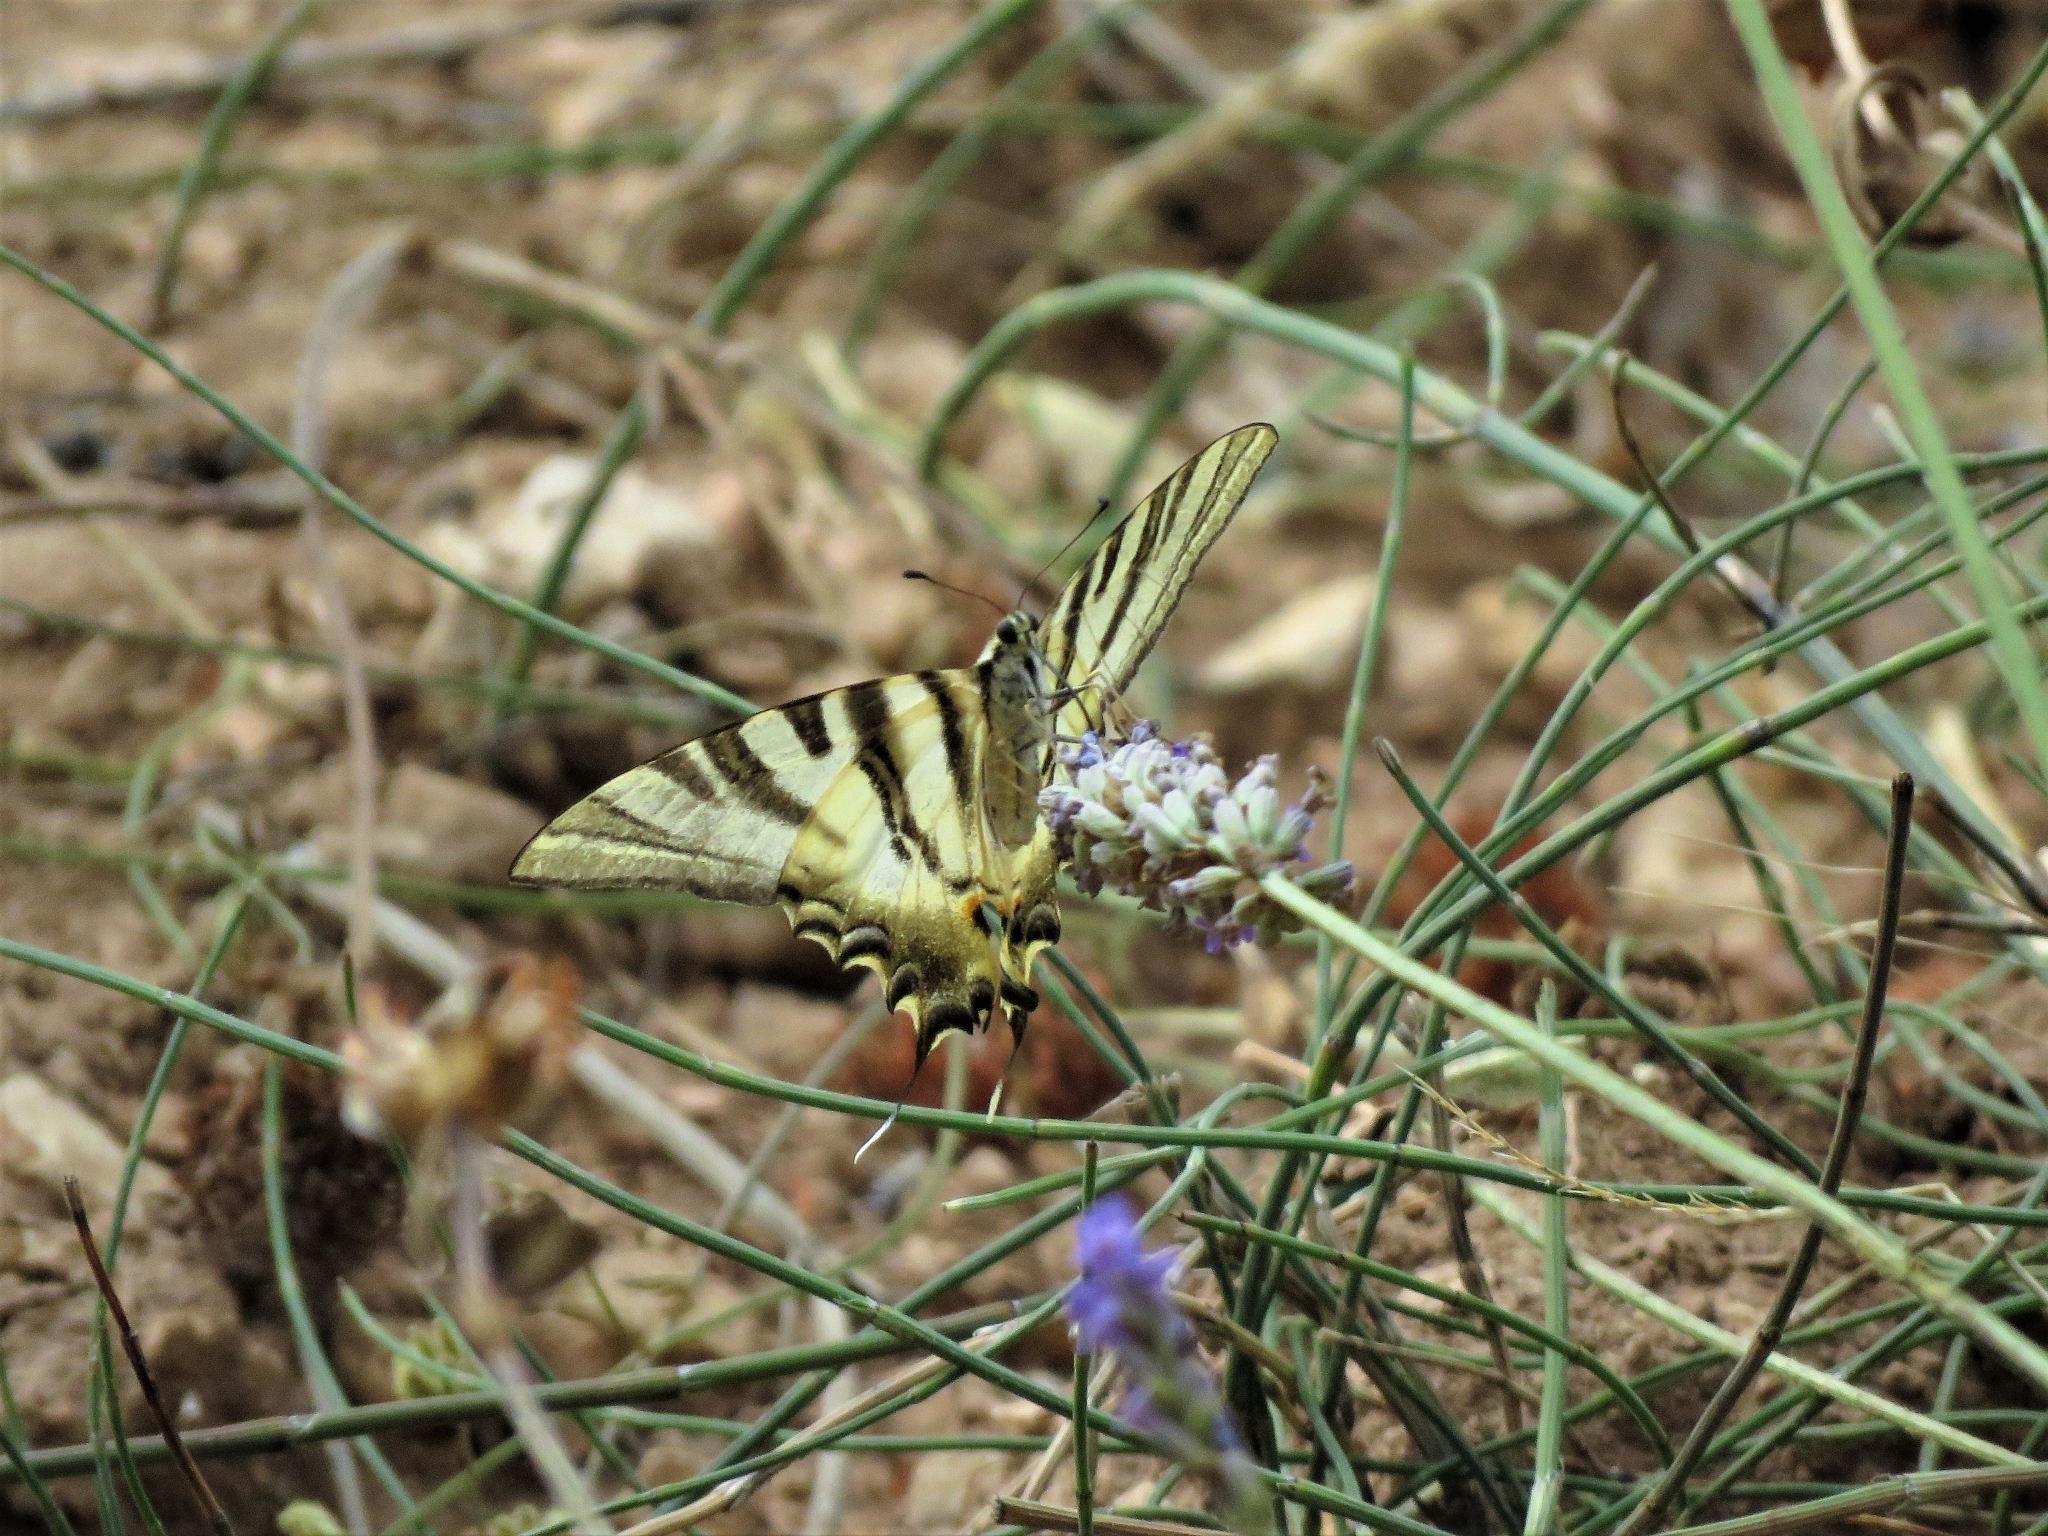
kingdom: Animalia
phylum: Arthropoda
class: Insecta
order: Lepidoptera
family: Papilionidae
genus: Iphiclides
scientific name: Iphiclides feisthamelii
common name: Iberian scarce swallowtail
